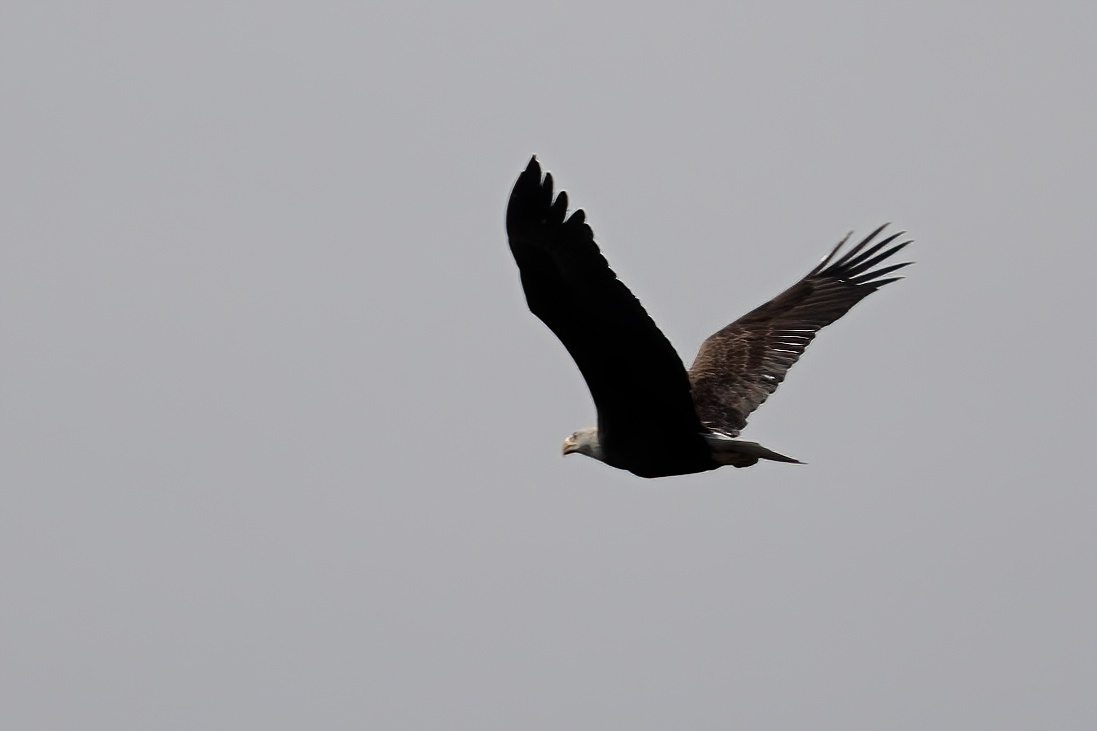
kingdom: Animalia
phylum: Chordata
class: Aves
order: Accipitriformes
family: Accipitridae
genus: Haliaeetus
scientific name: Haliaeetus leucocephalus
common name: Bald eagle
